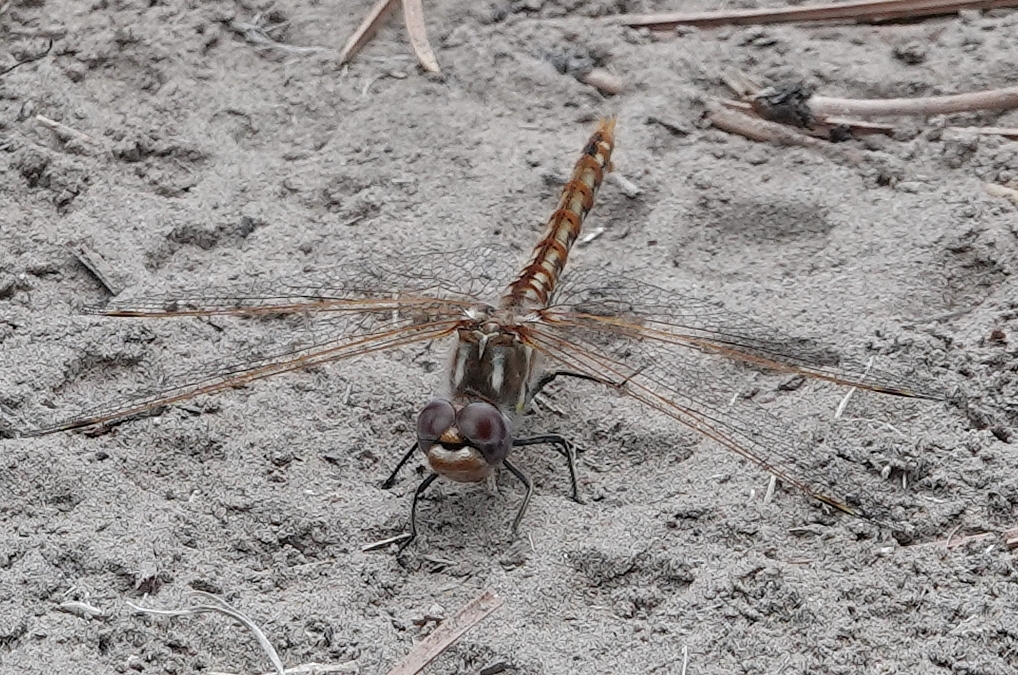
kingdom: Animalia
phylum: Arthropoda
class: Insecta
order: Odonata
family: Libellulidae
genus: Sympetrum
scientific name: Sympetrum corruptum
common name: Variegated meadowhawk
